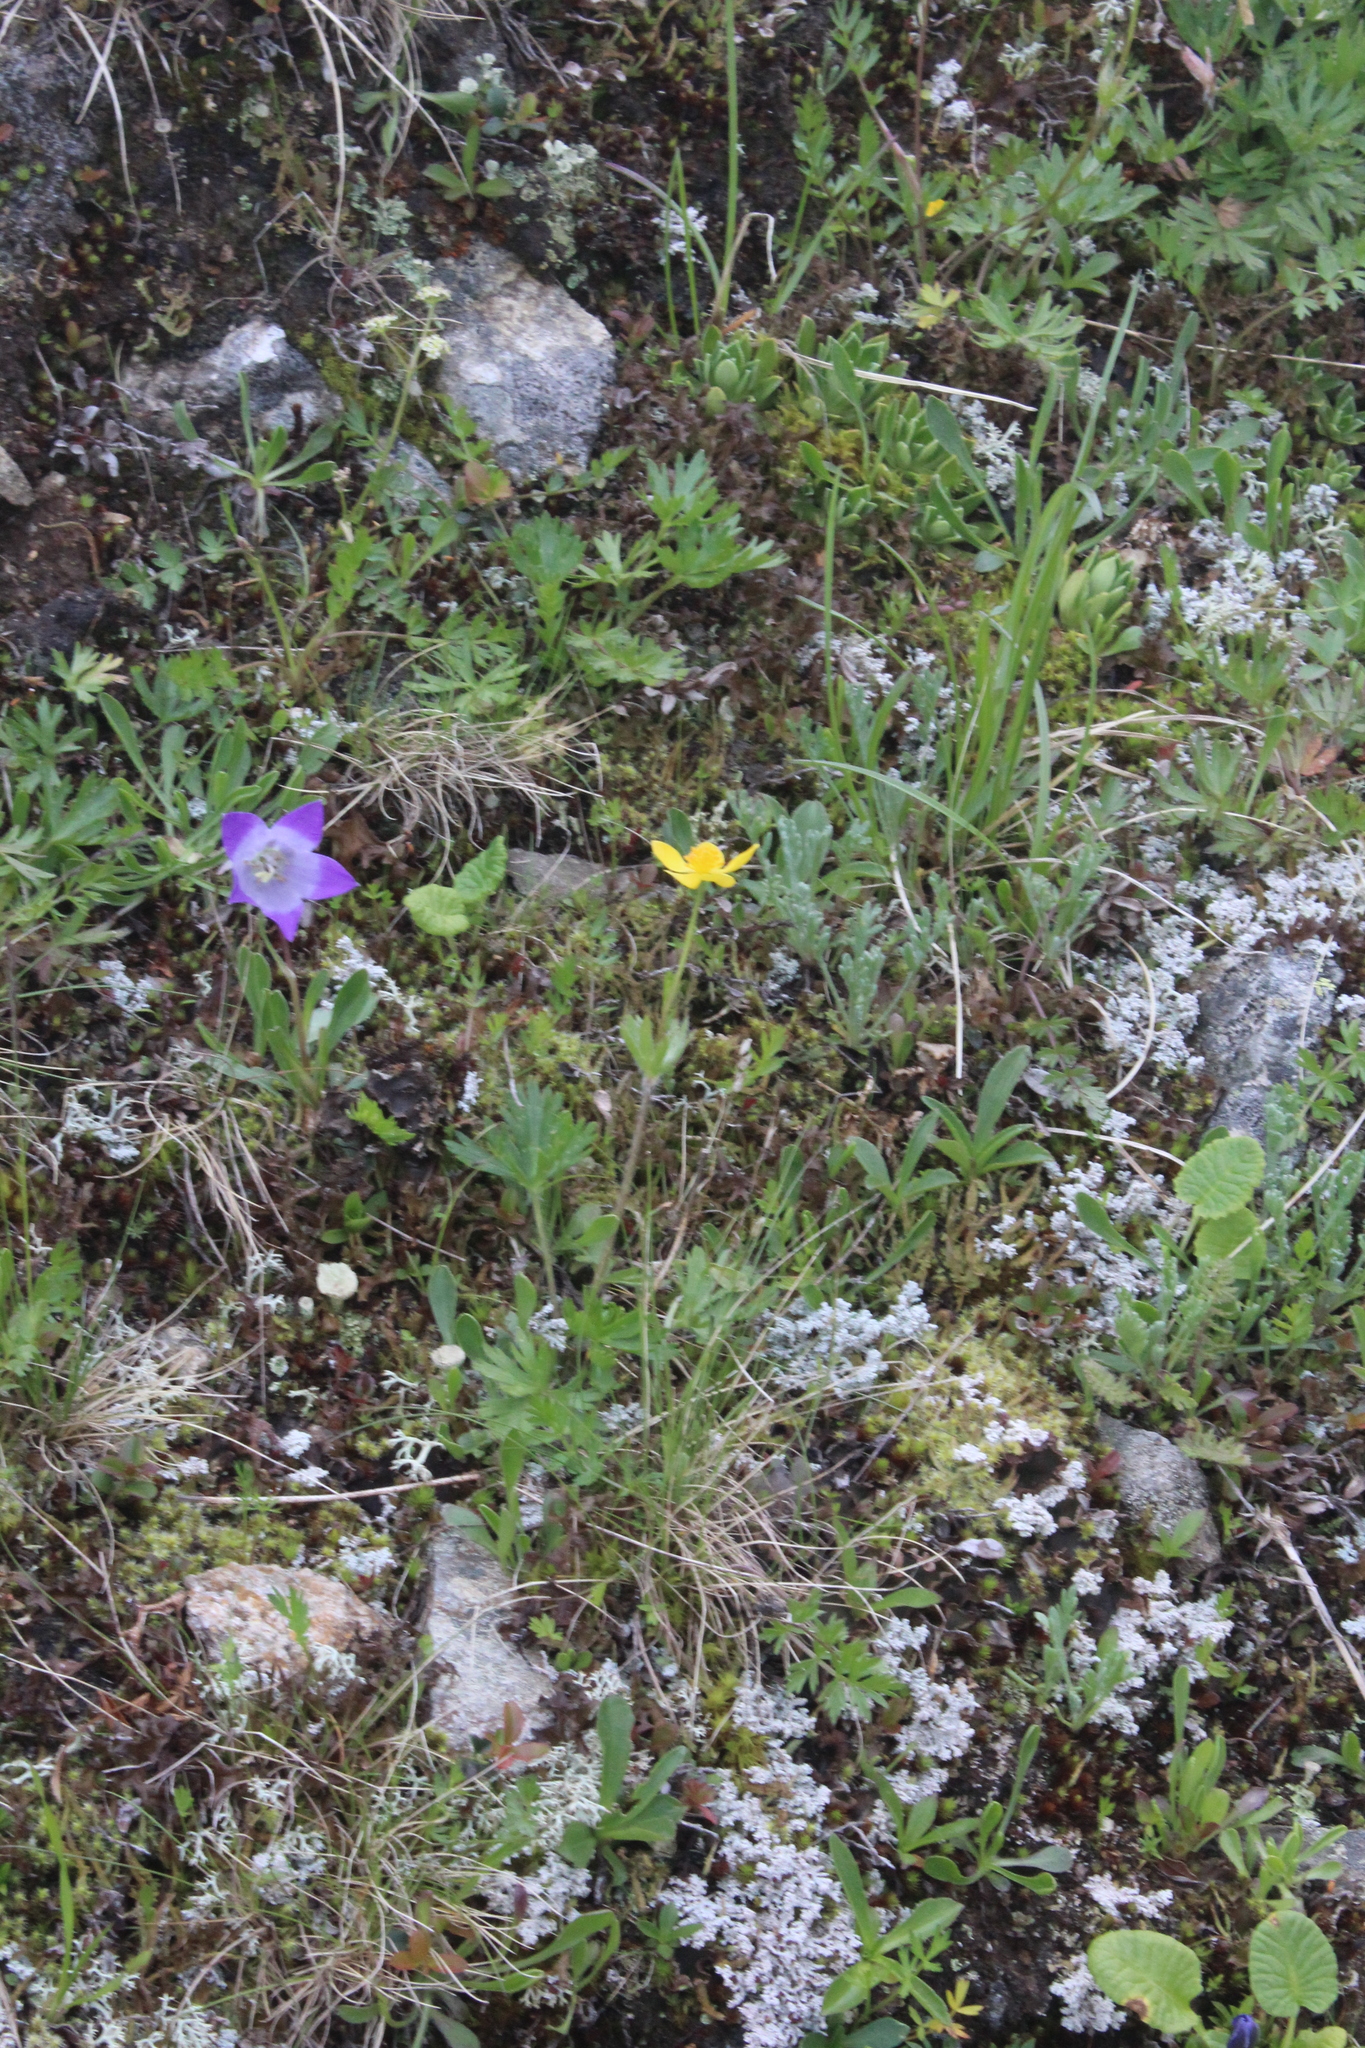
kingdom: Plantae
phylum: Tracheophyta
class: Magnoliopsida
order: Ranunculales
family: Ranunculaceae
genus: Anemonastrum
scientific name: Anemonastrum narcissiflorum
